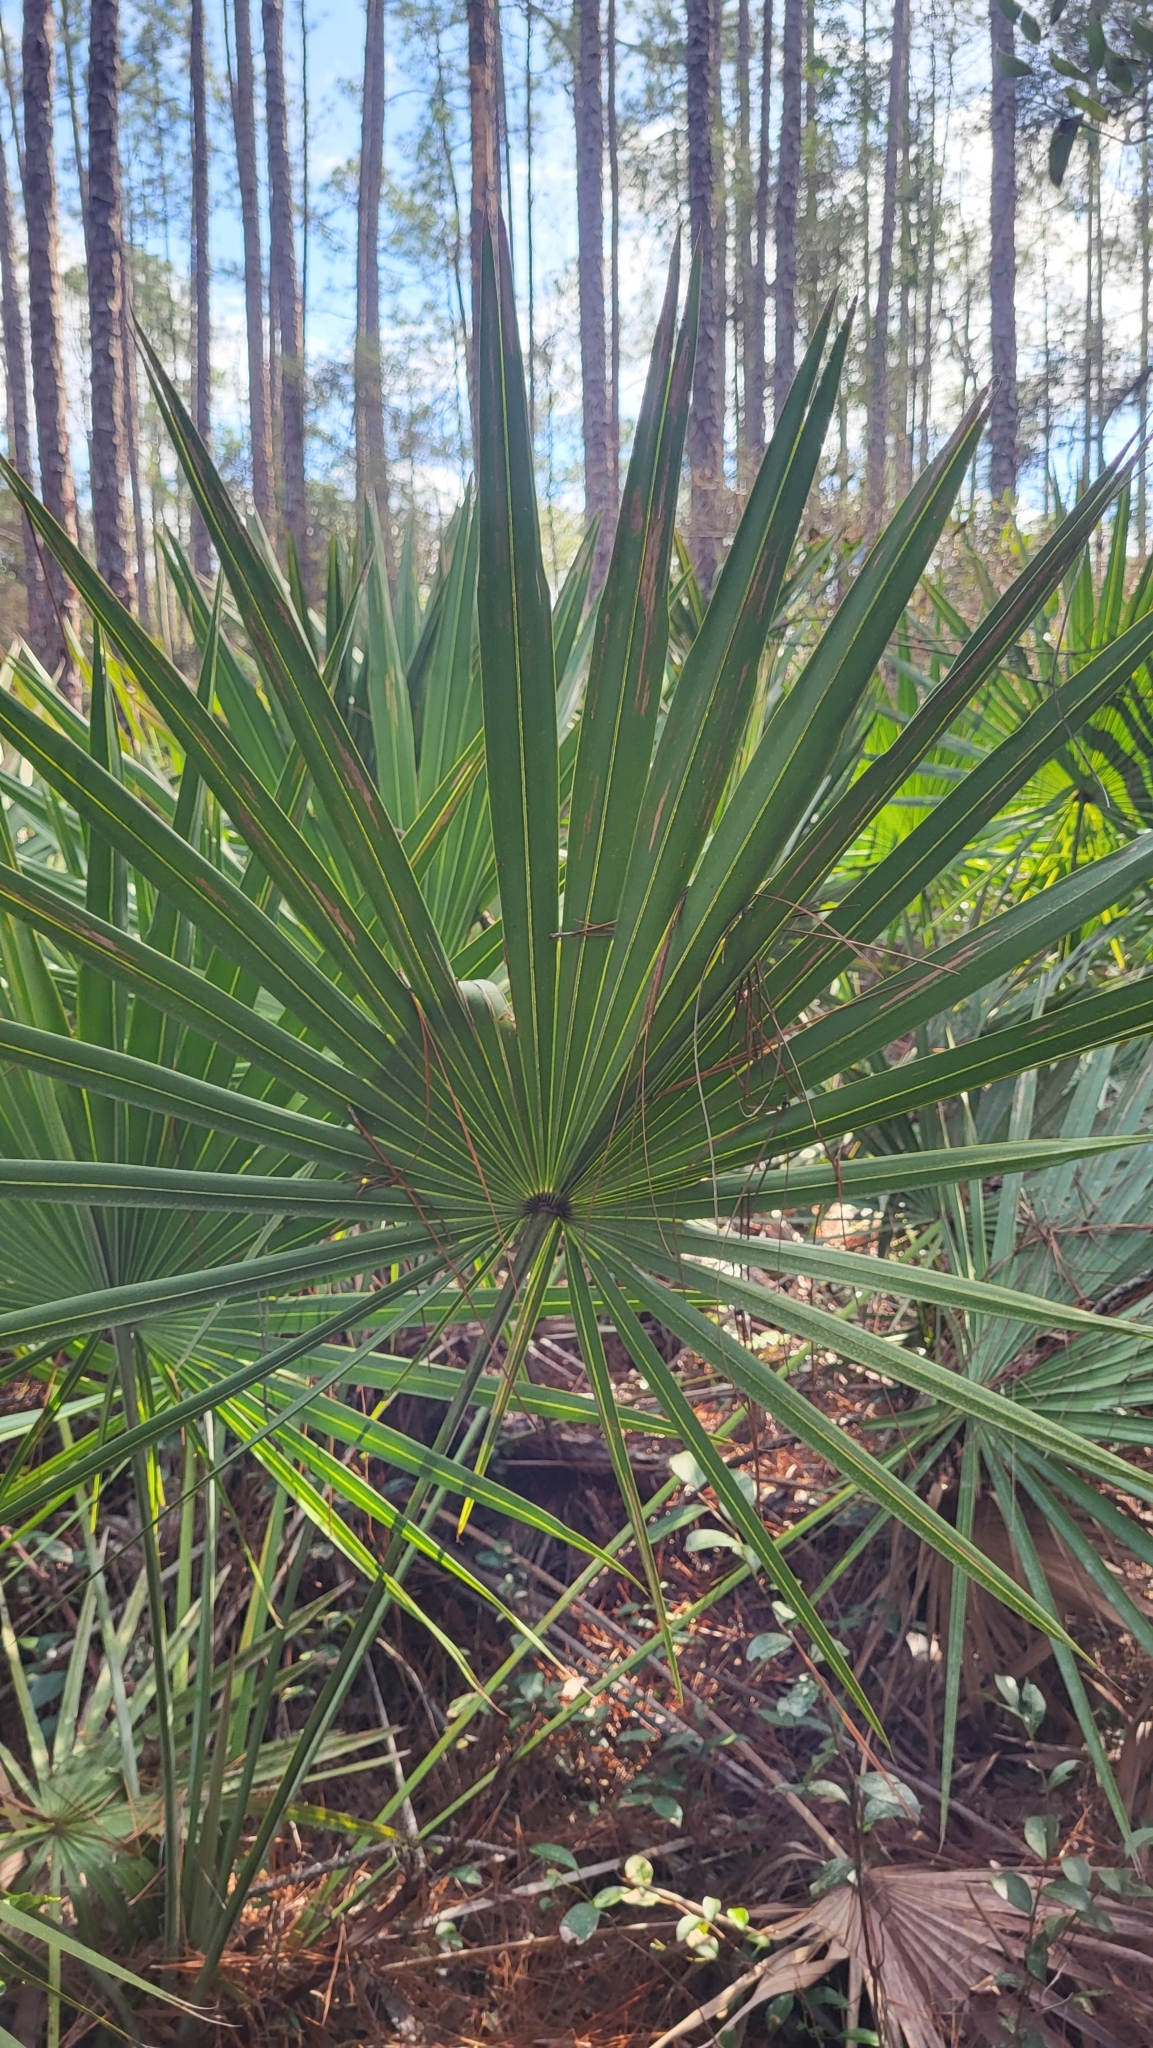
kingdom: Plantae
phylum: Tracheophyta
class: Liliopsida
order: Arecales
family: Arecaceae
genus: Serenoa
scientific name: Serenoa repens
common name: Saw-palmetto
